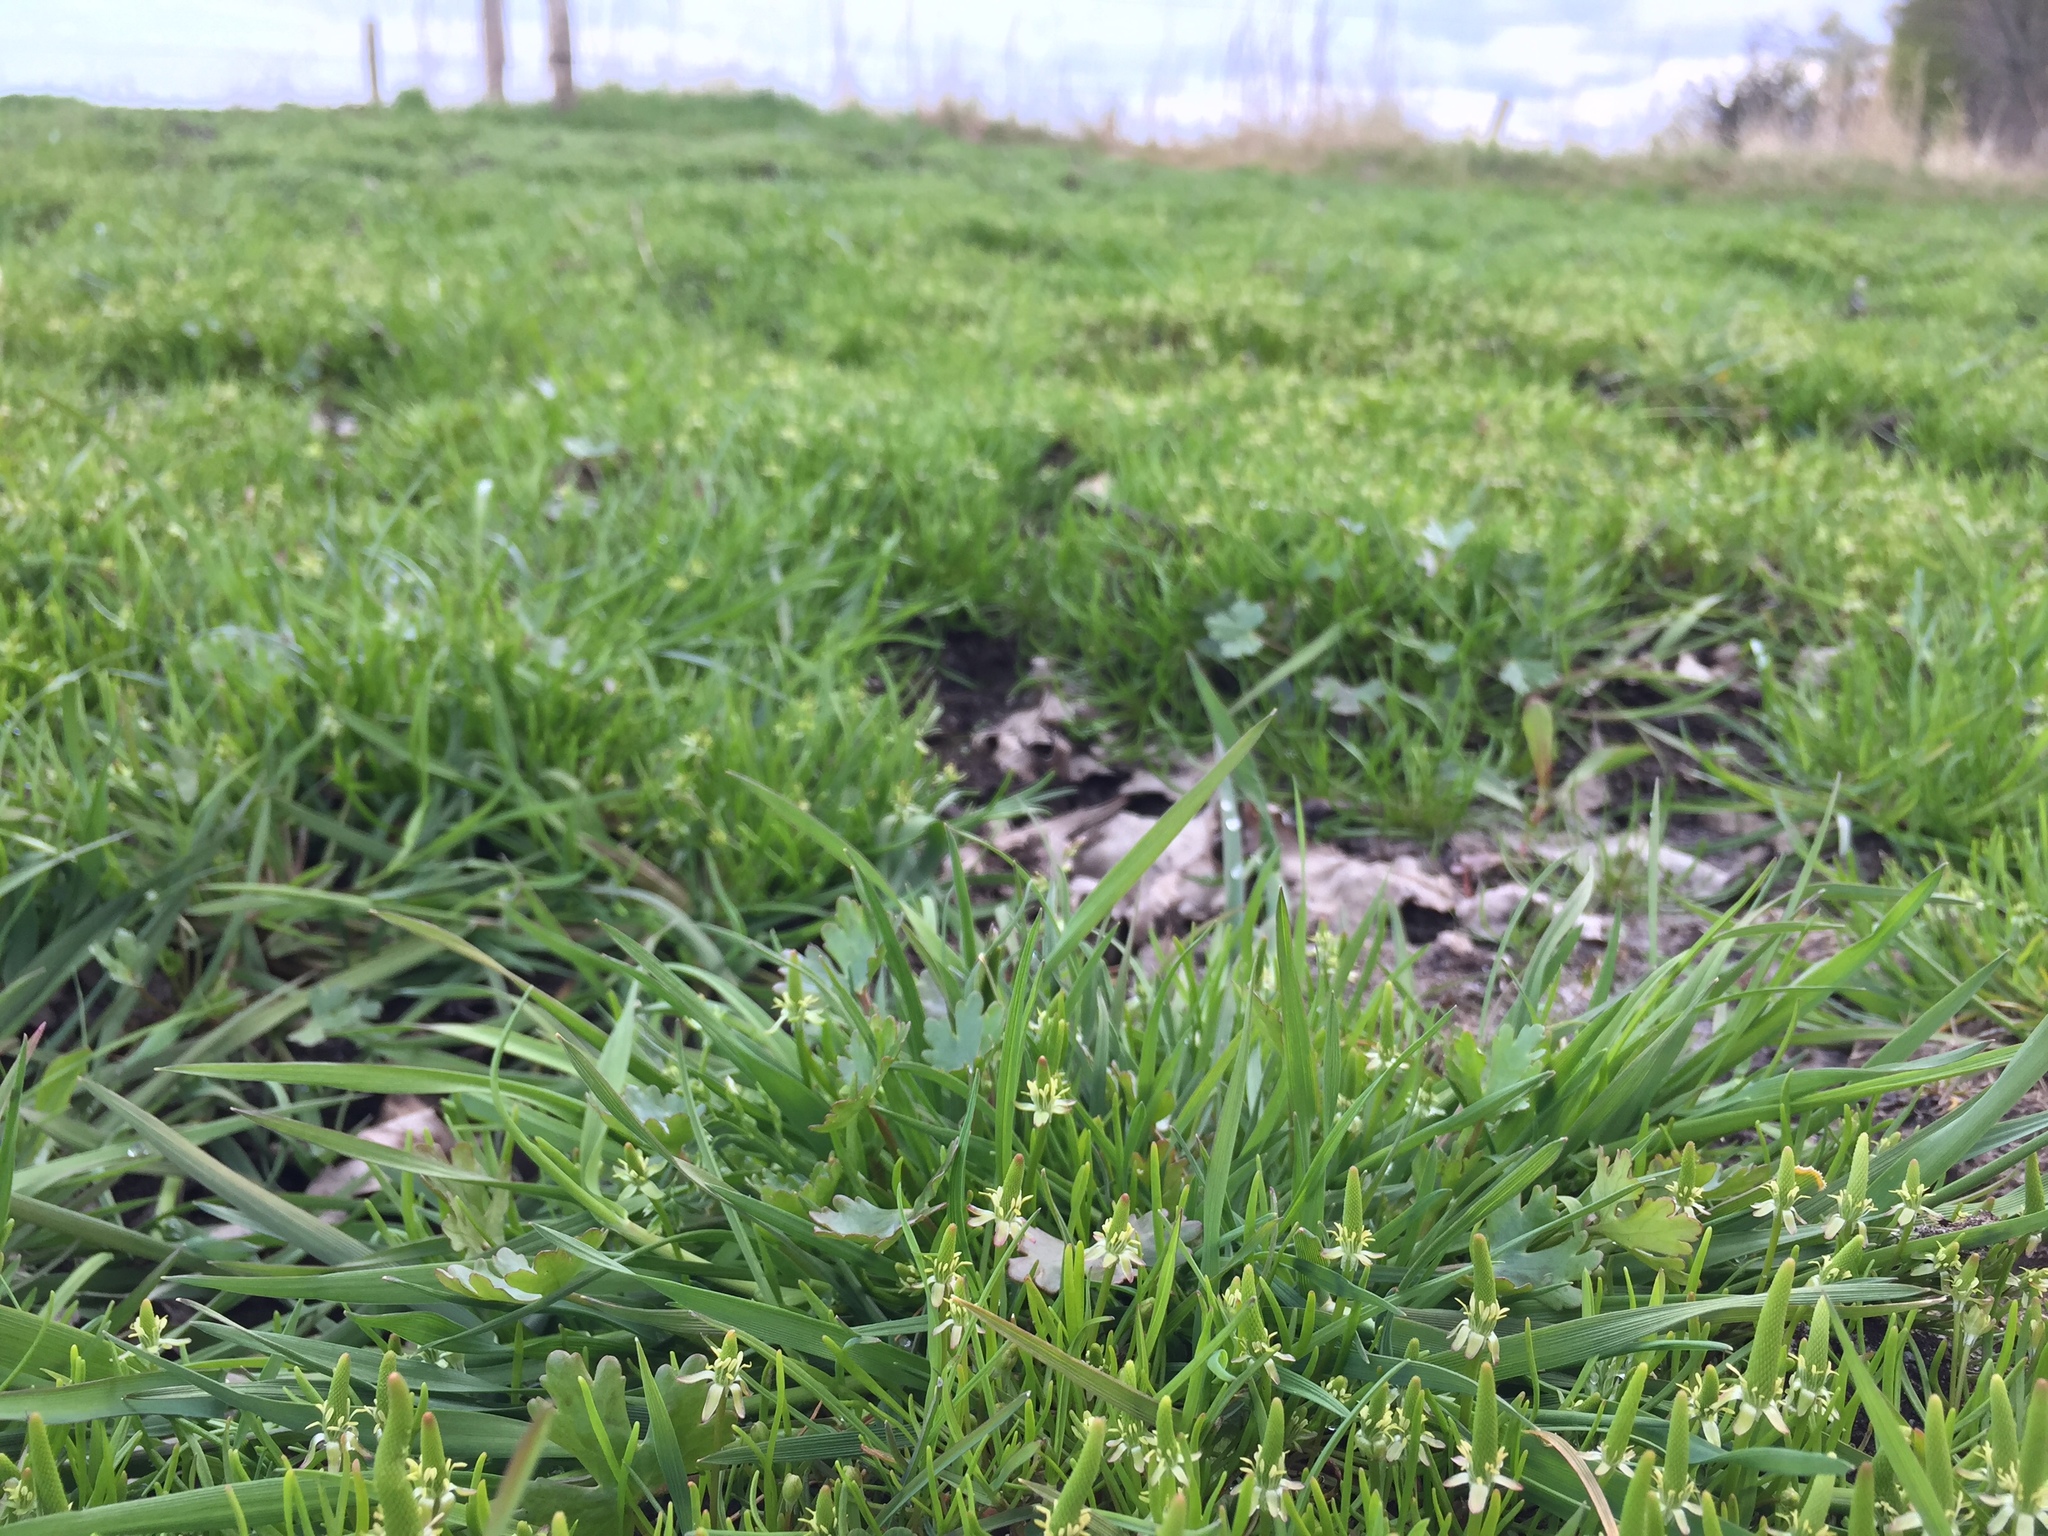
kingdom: Plantae
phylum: Tracheophyta
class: Magnoliopsida
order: Ranunculales
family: Ranunculaceae
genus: Myosurus
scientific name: Myosurus minimus
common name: Mousetail
